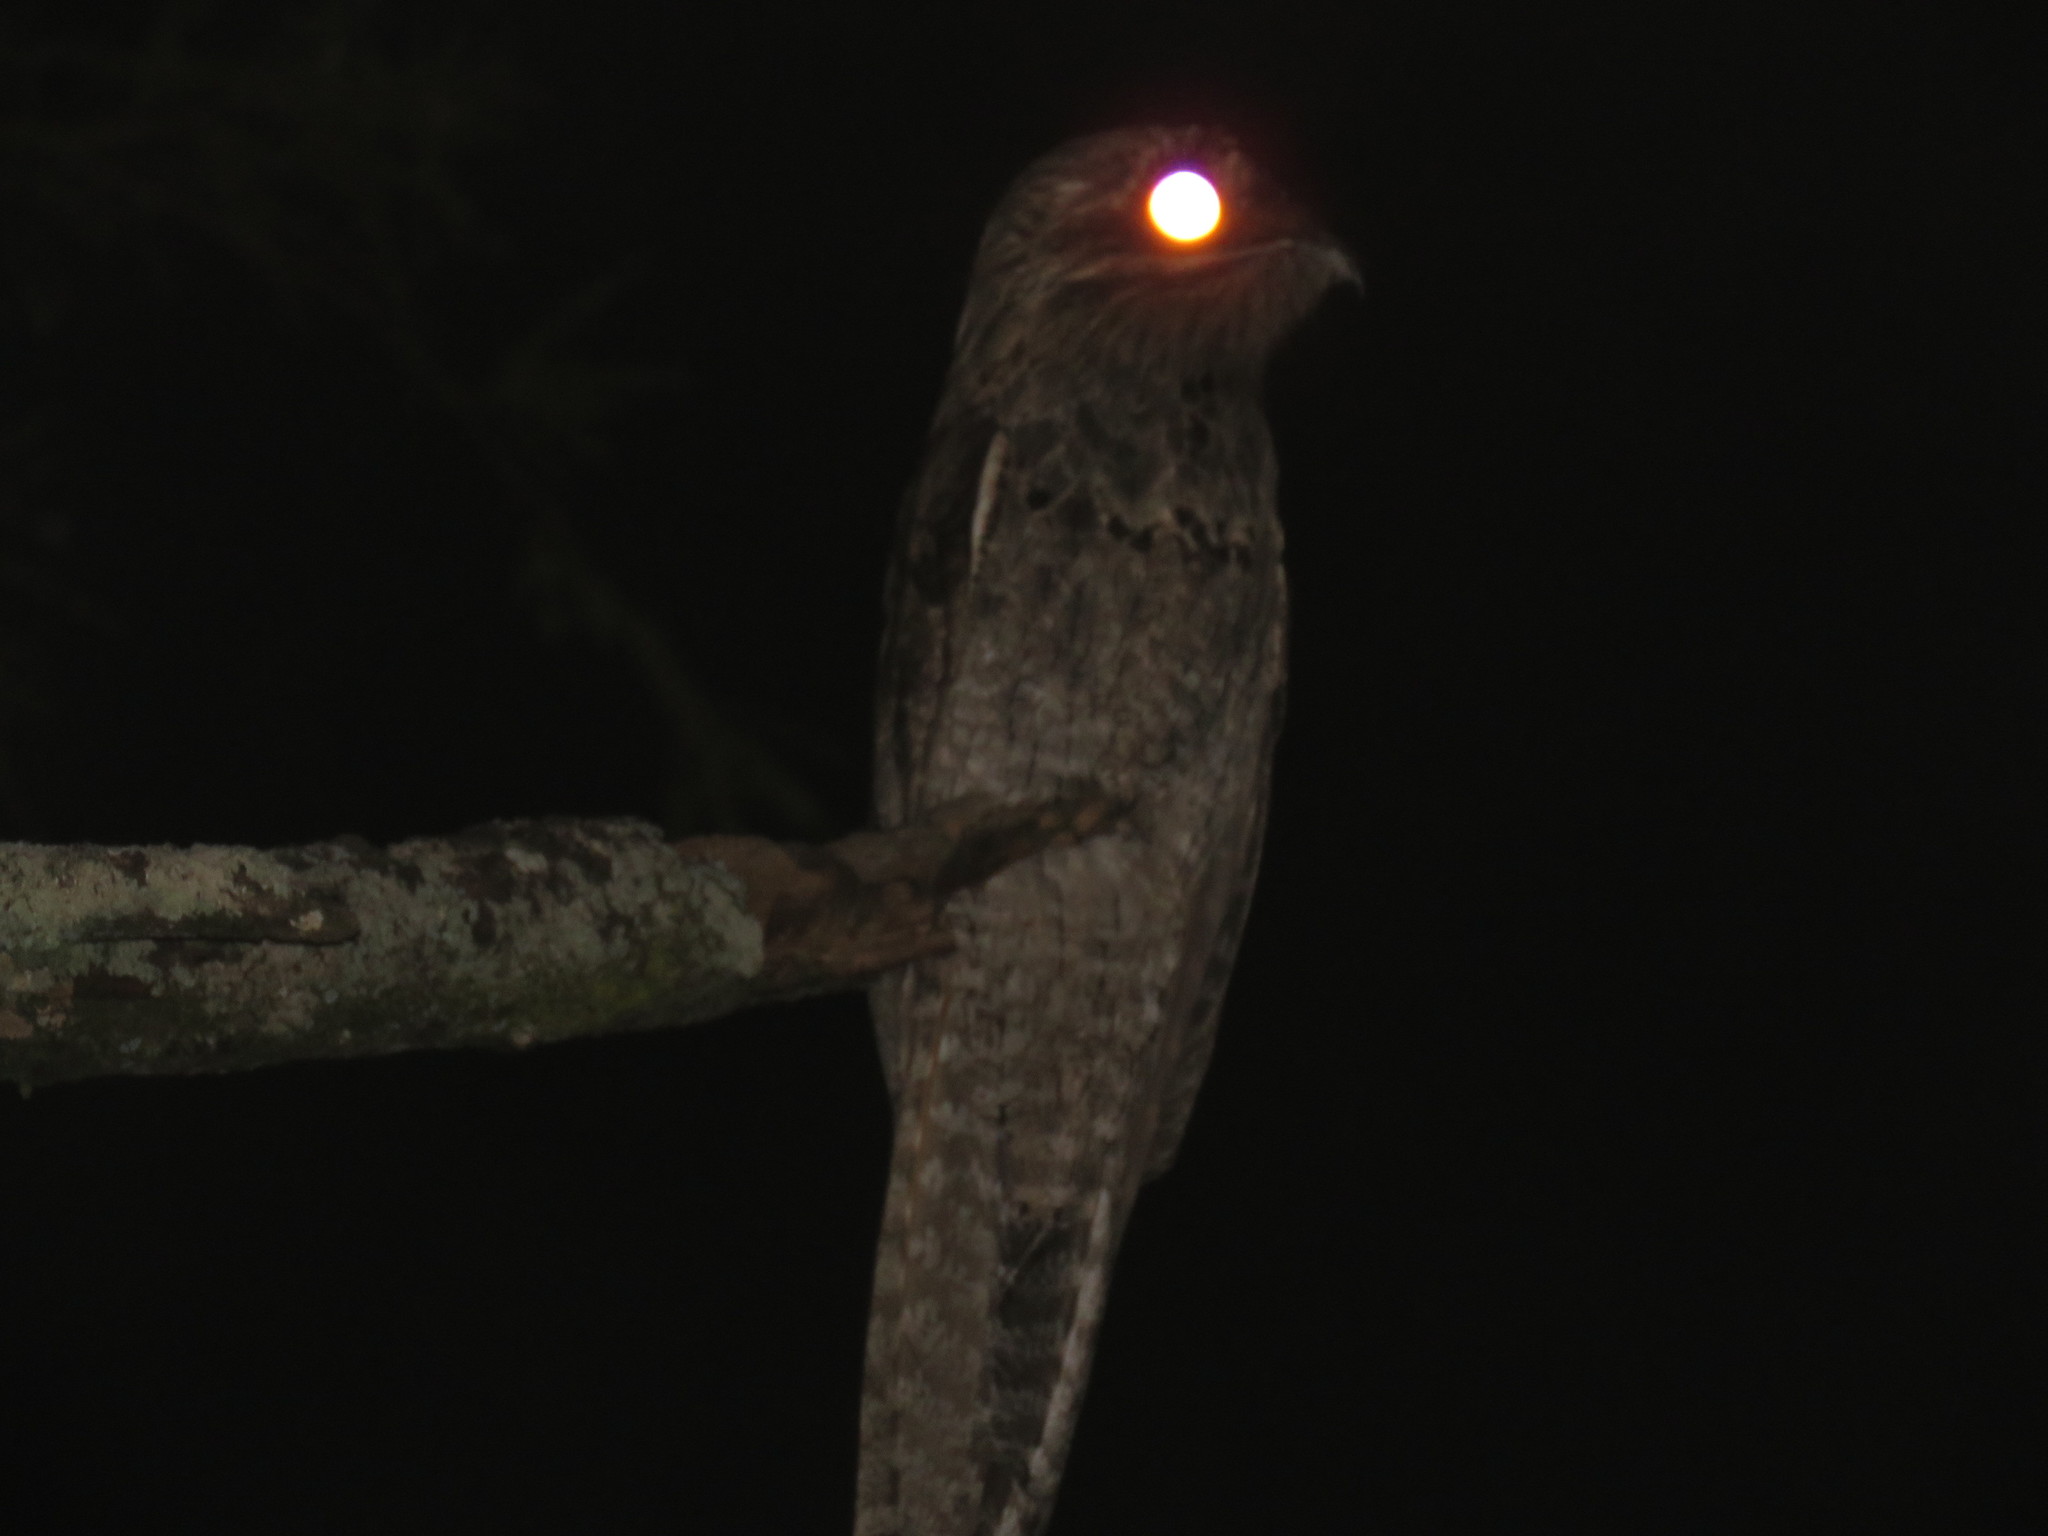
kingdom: Animalia
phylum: Chordata
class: Aves
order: Nyctibiiformes
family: Nyctibiidae
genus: Nyctibius
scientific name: Nyctibius griseus
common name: Common potoo
